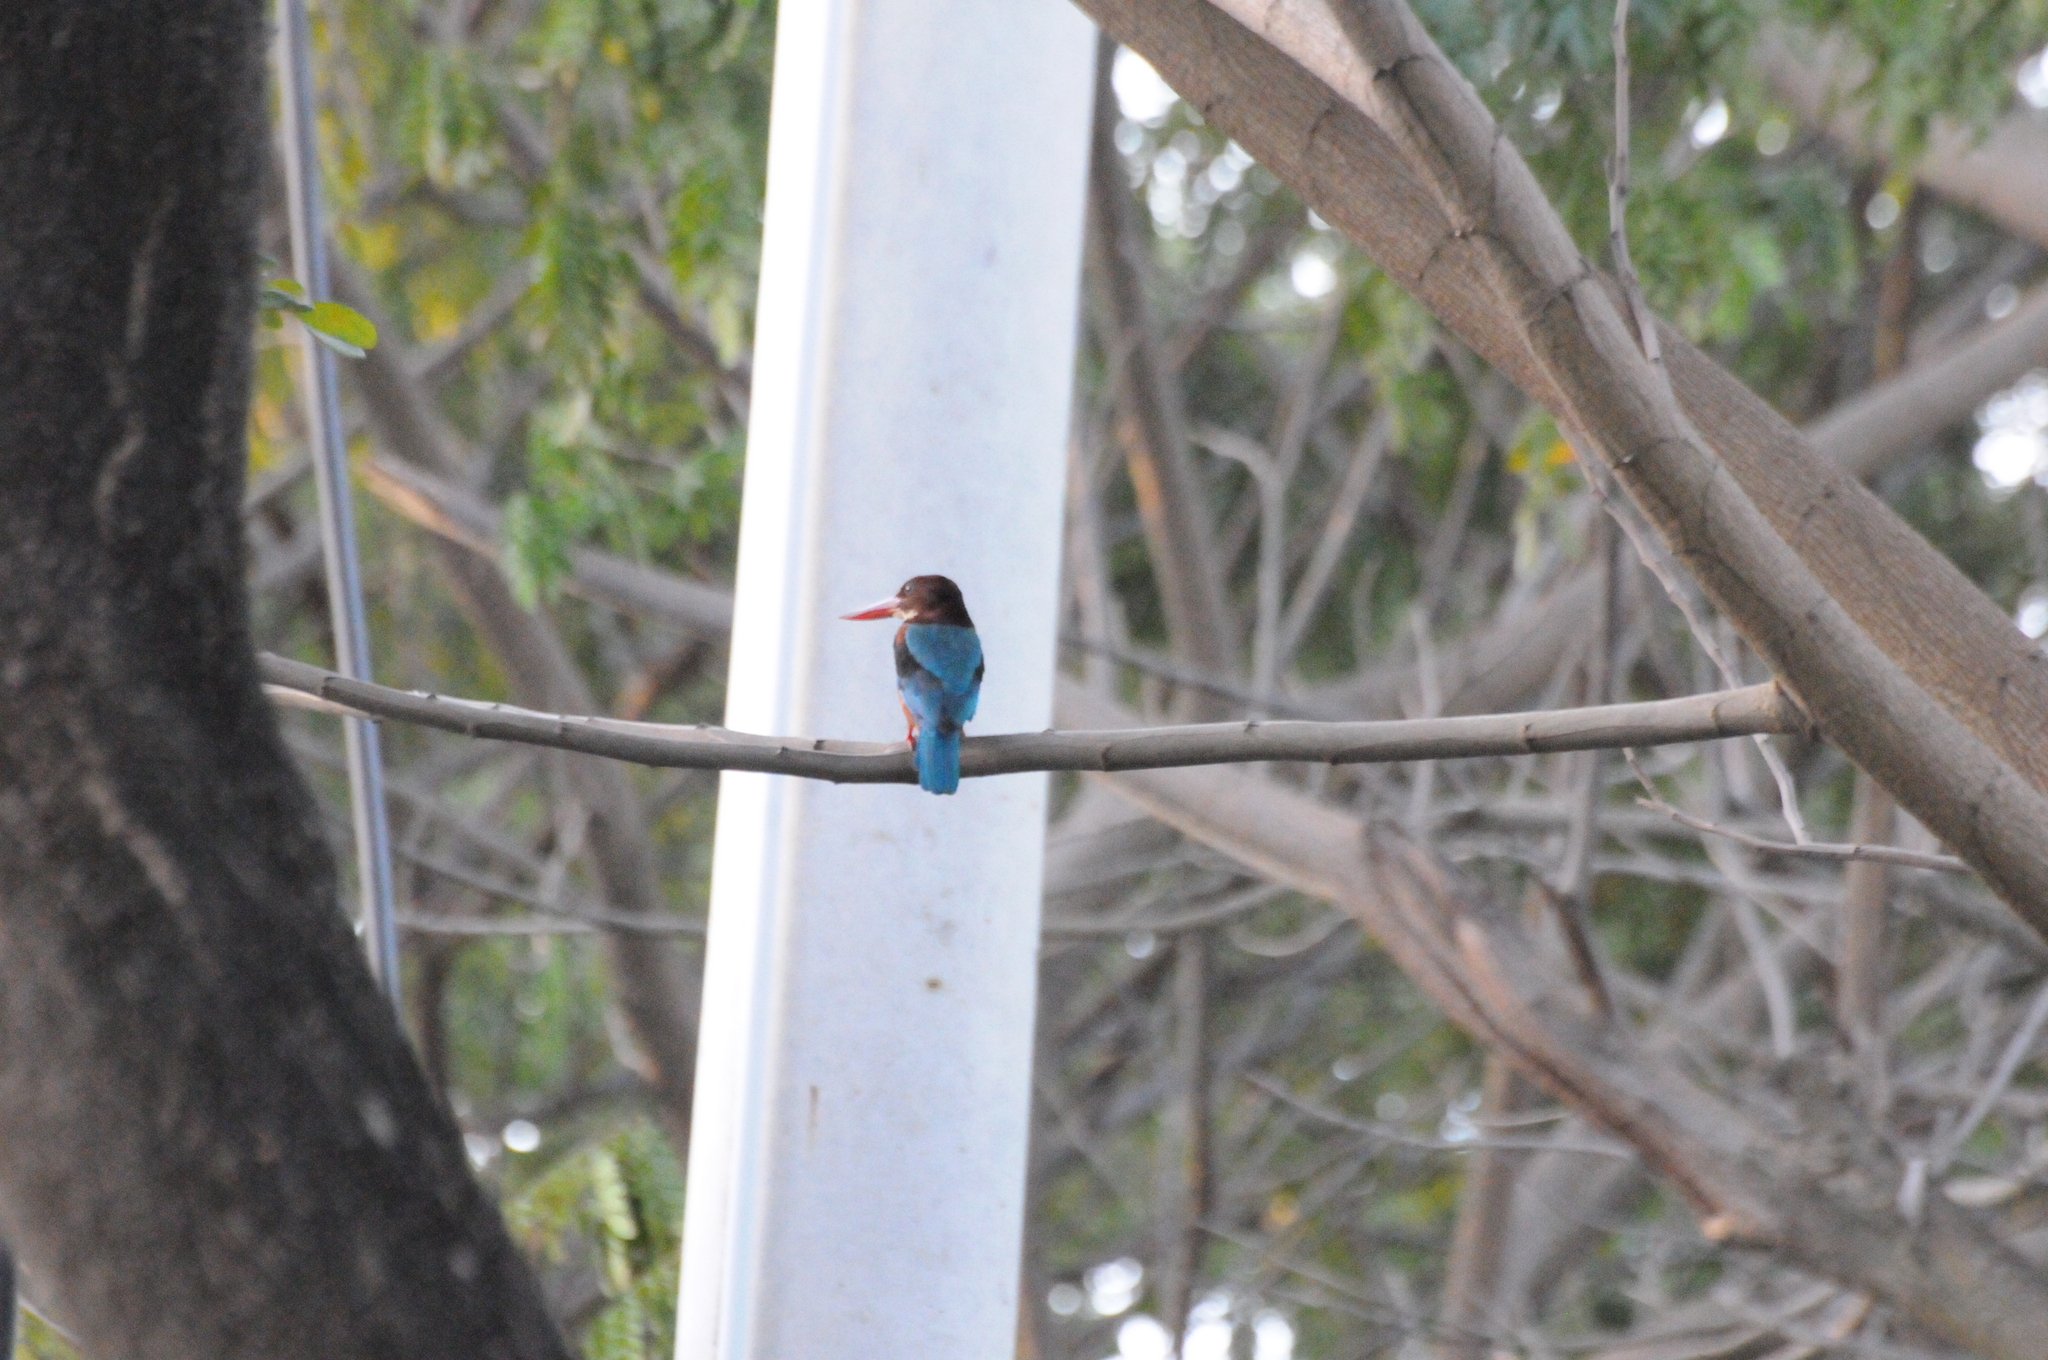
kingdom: Animalia
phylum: Chordata
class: Aves
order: Coraciiformes
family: Alcedinidae
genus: Halcyon
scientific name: Halcyon smyrnensis
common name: White-throated kingfisher
